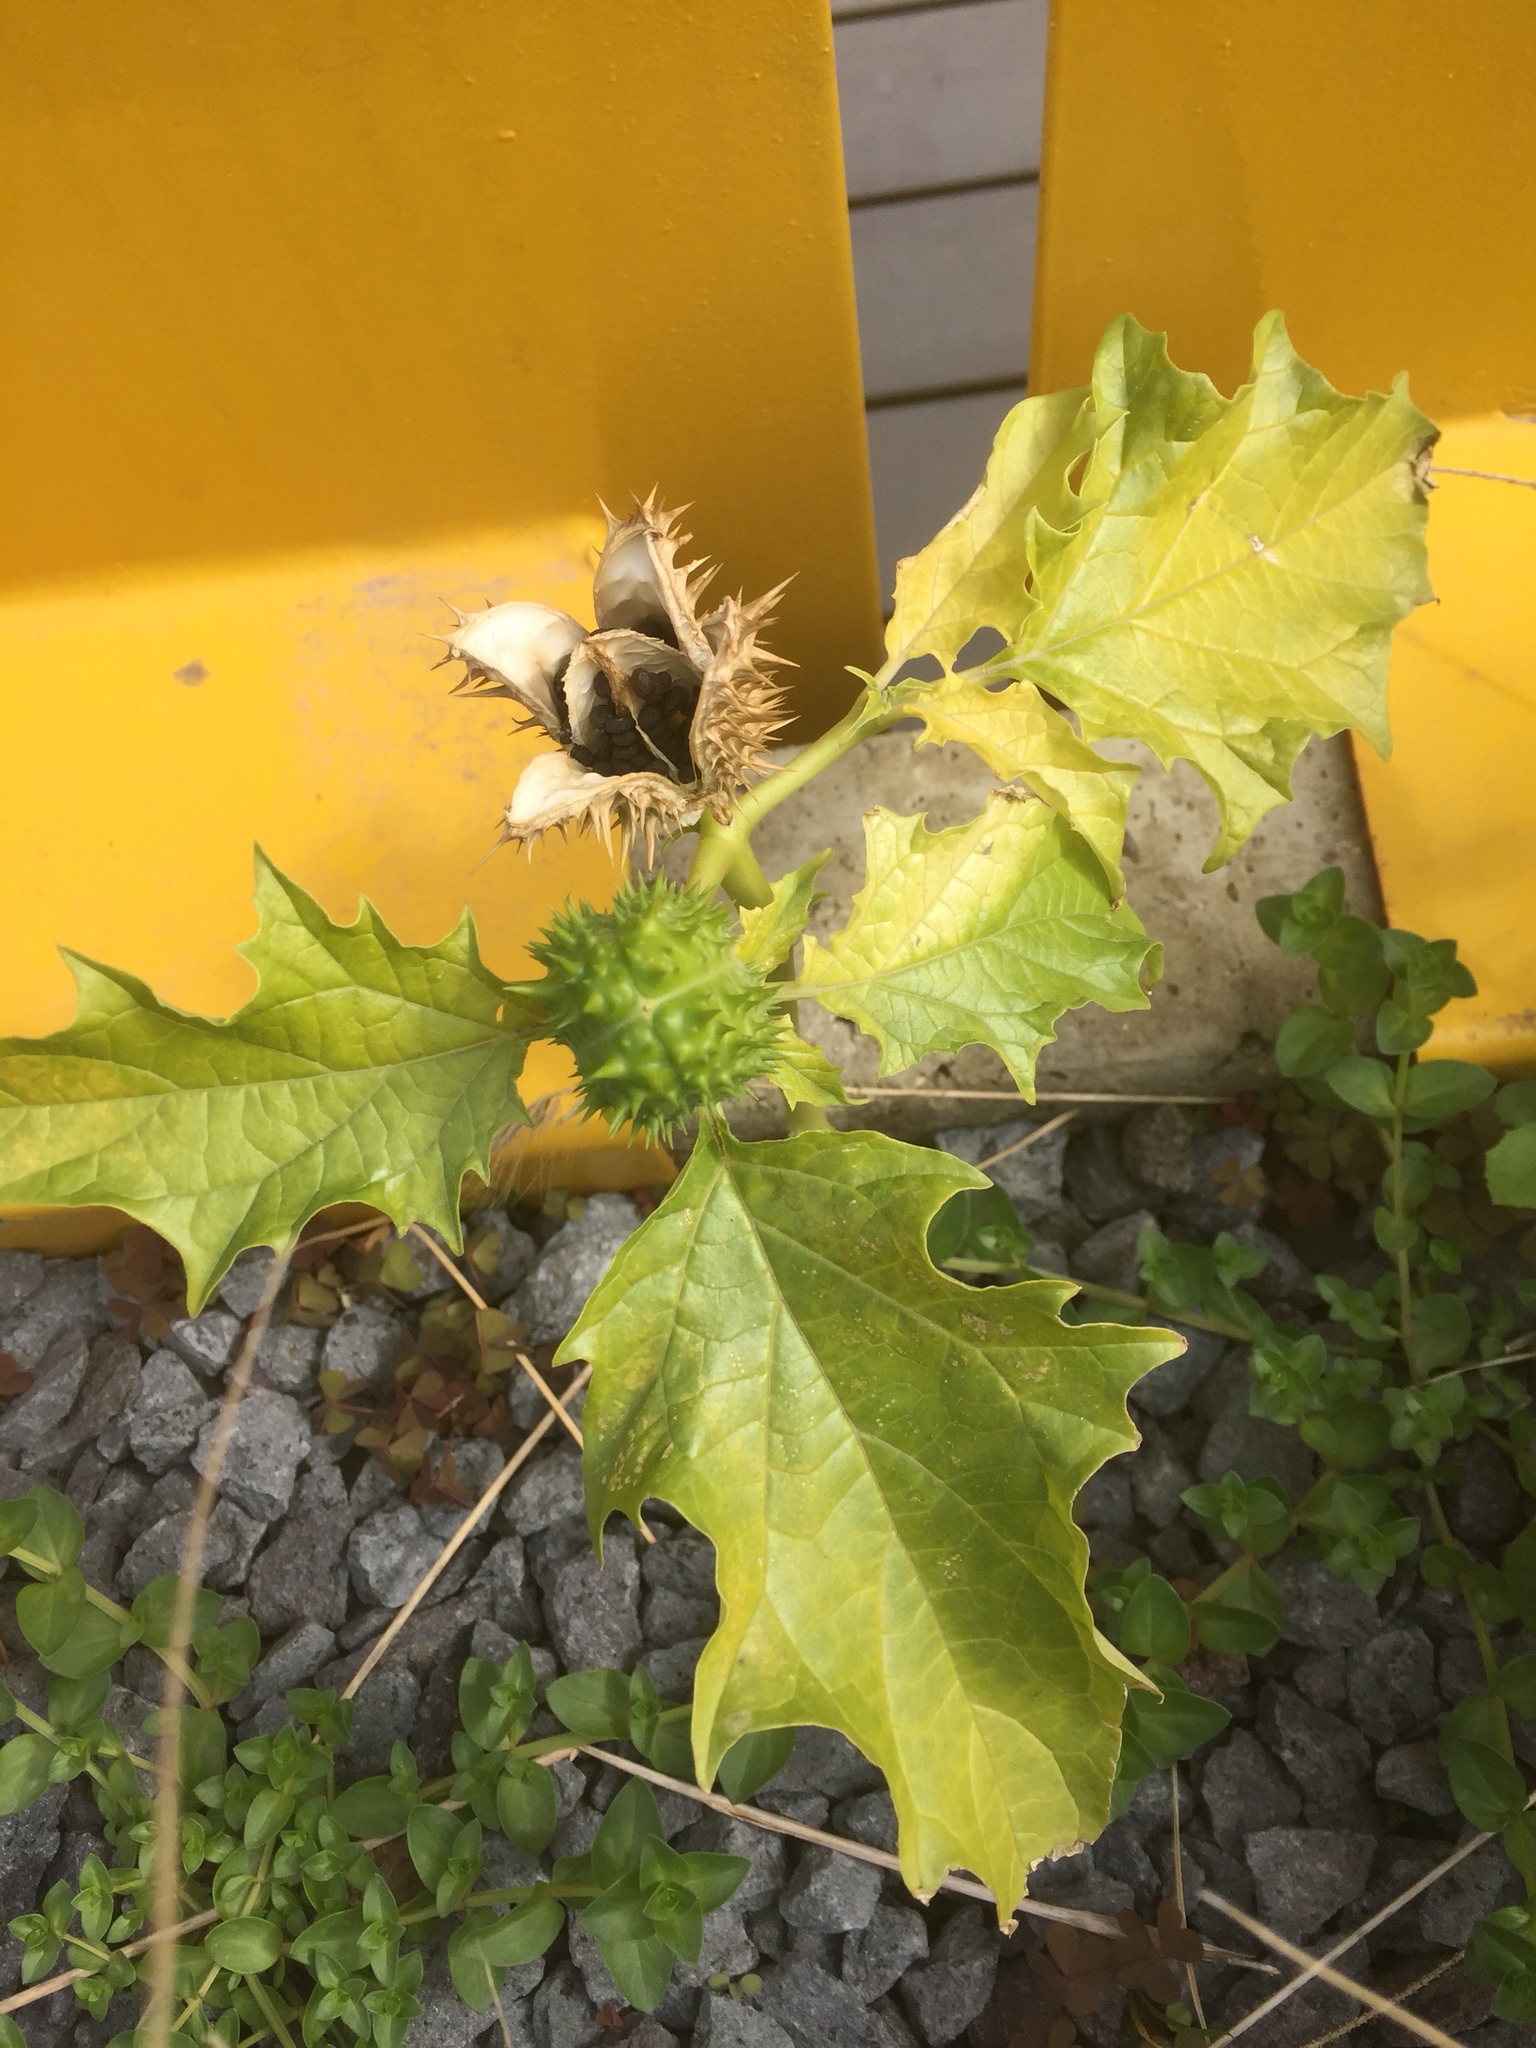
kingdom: Plantae
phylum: Tracheophyta
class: Magnoliopsida
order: Solanales
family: Solanaceae
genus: Datura
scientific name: Datura stramonium
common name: Thorn-apple
